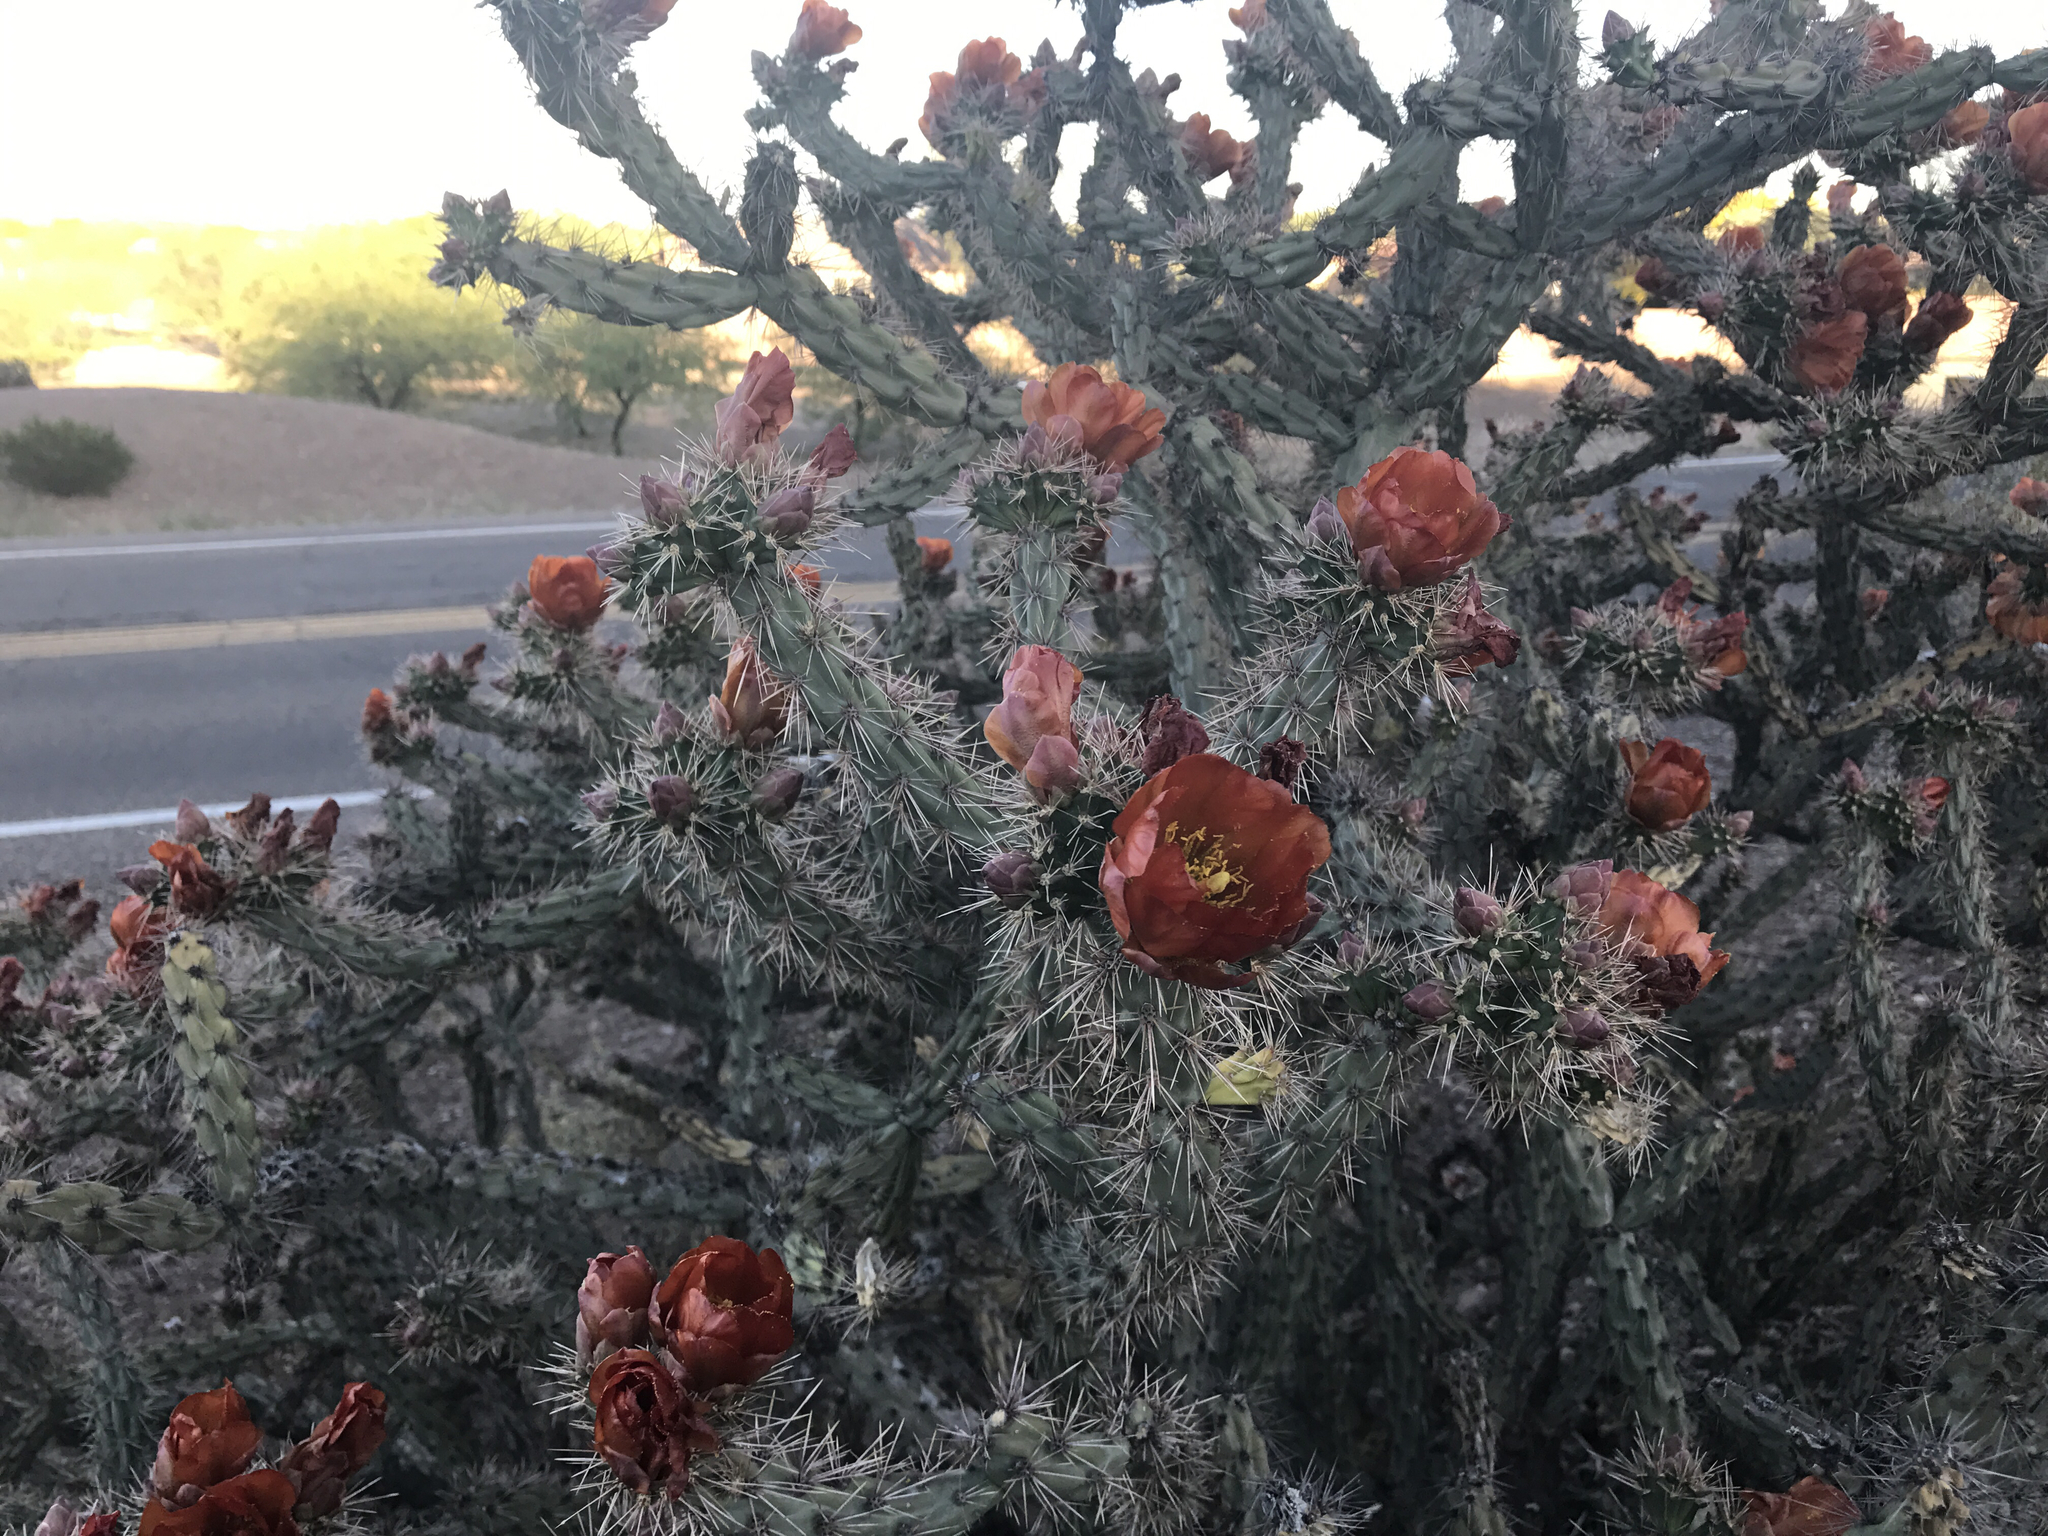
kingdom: Plantae
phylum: Tracheophyta
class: Magnoliopsida
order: Caryophyllales
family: Cactaceae
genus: Cylindropuntia
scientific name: Cylindropuntia thurberi
